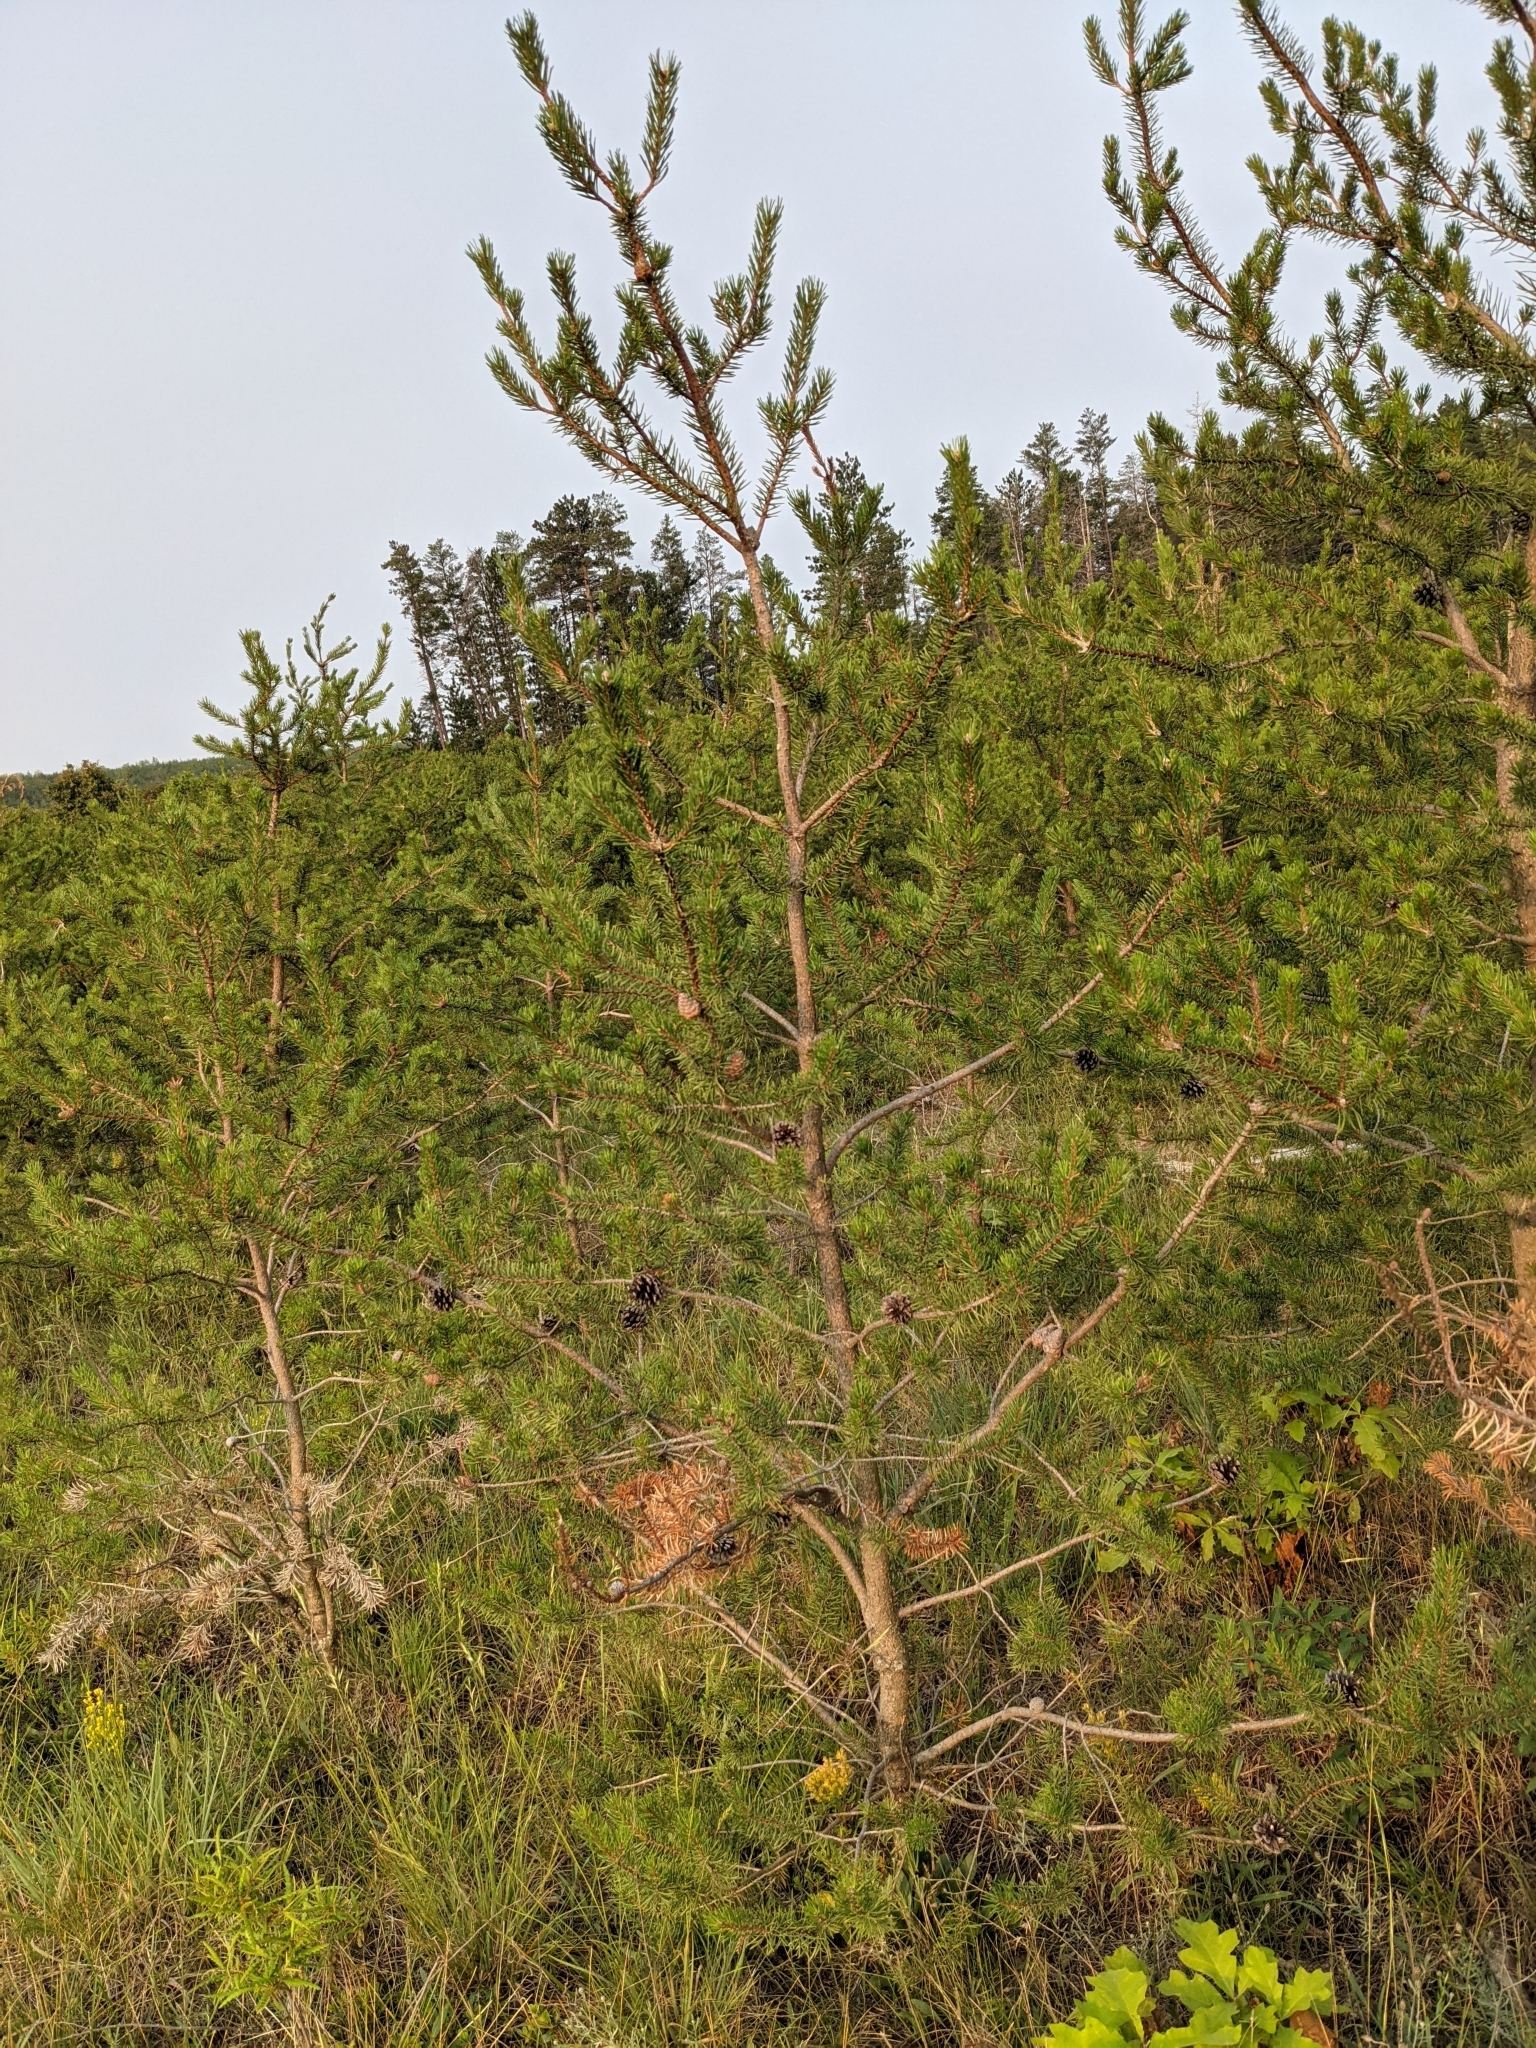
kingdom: Plantae
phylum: Tracheophyta
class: Pinopsida
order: Pinales
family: Pinaceae
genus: Pinus
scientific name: Pinus banksiana
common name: Jack pine
